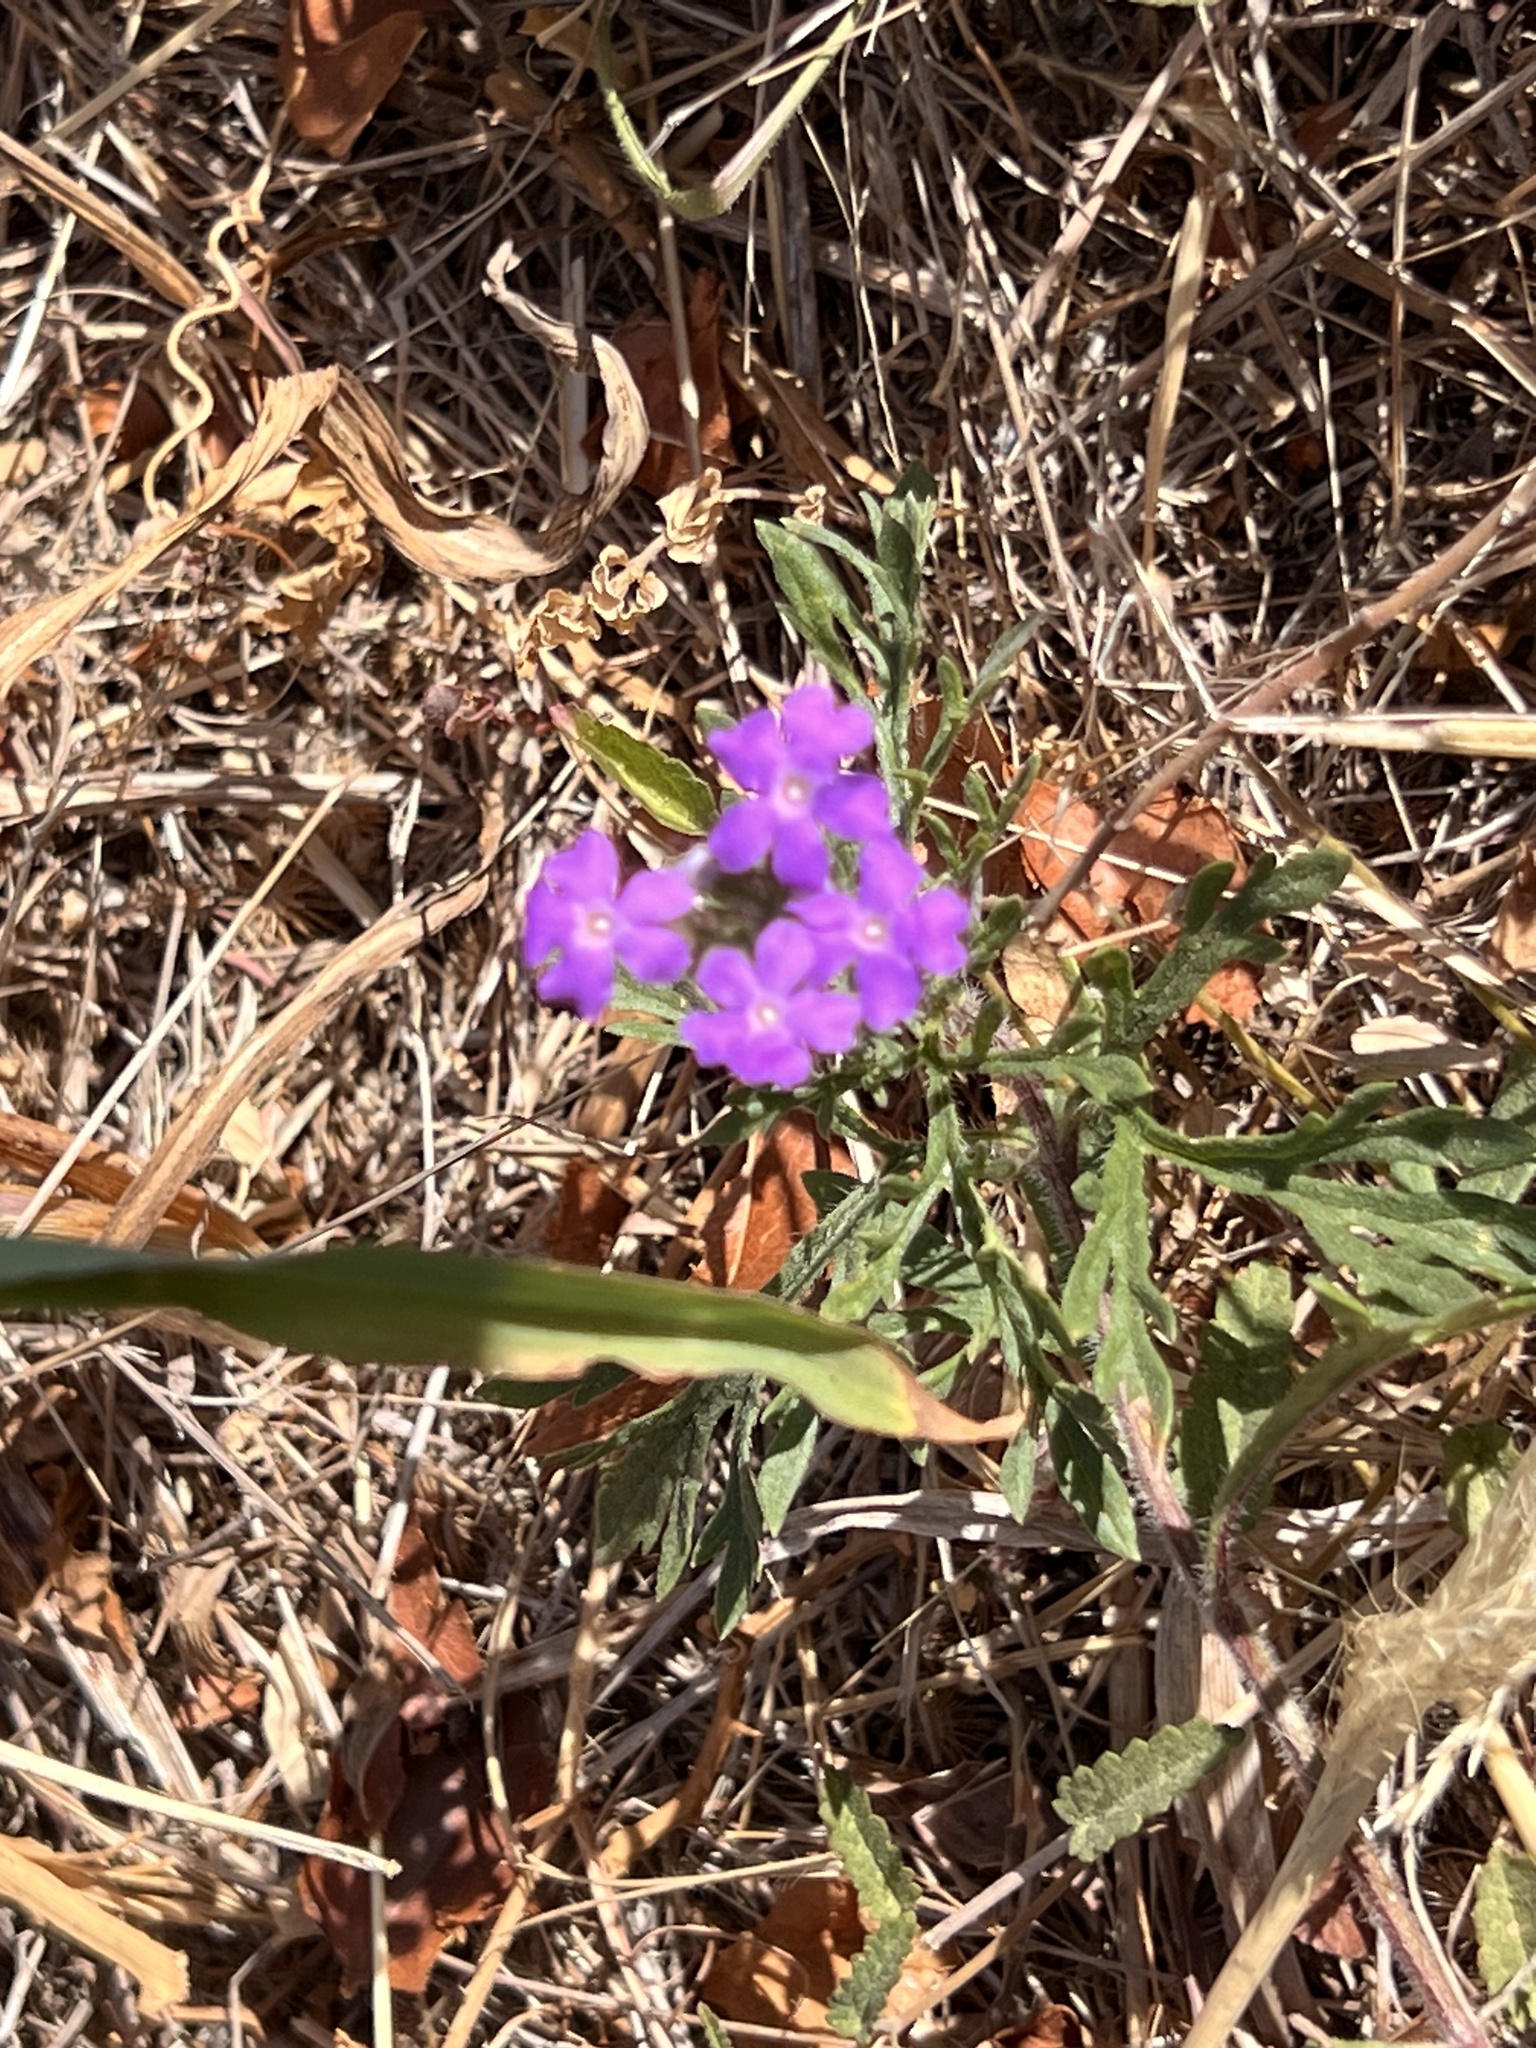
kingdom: Plantae
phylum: Tracheophyta
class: Magnoliopsida
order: Lamiales
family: Verbenaceae
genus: Verbena
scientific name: Verbena bipinnatifida
